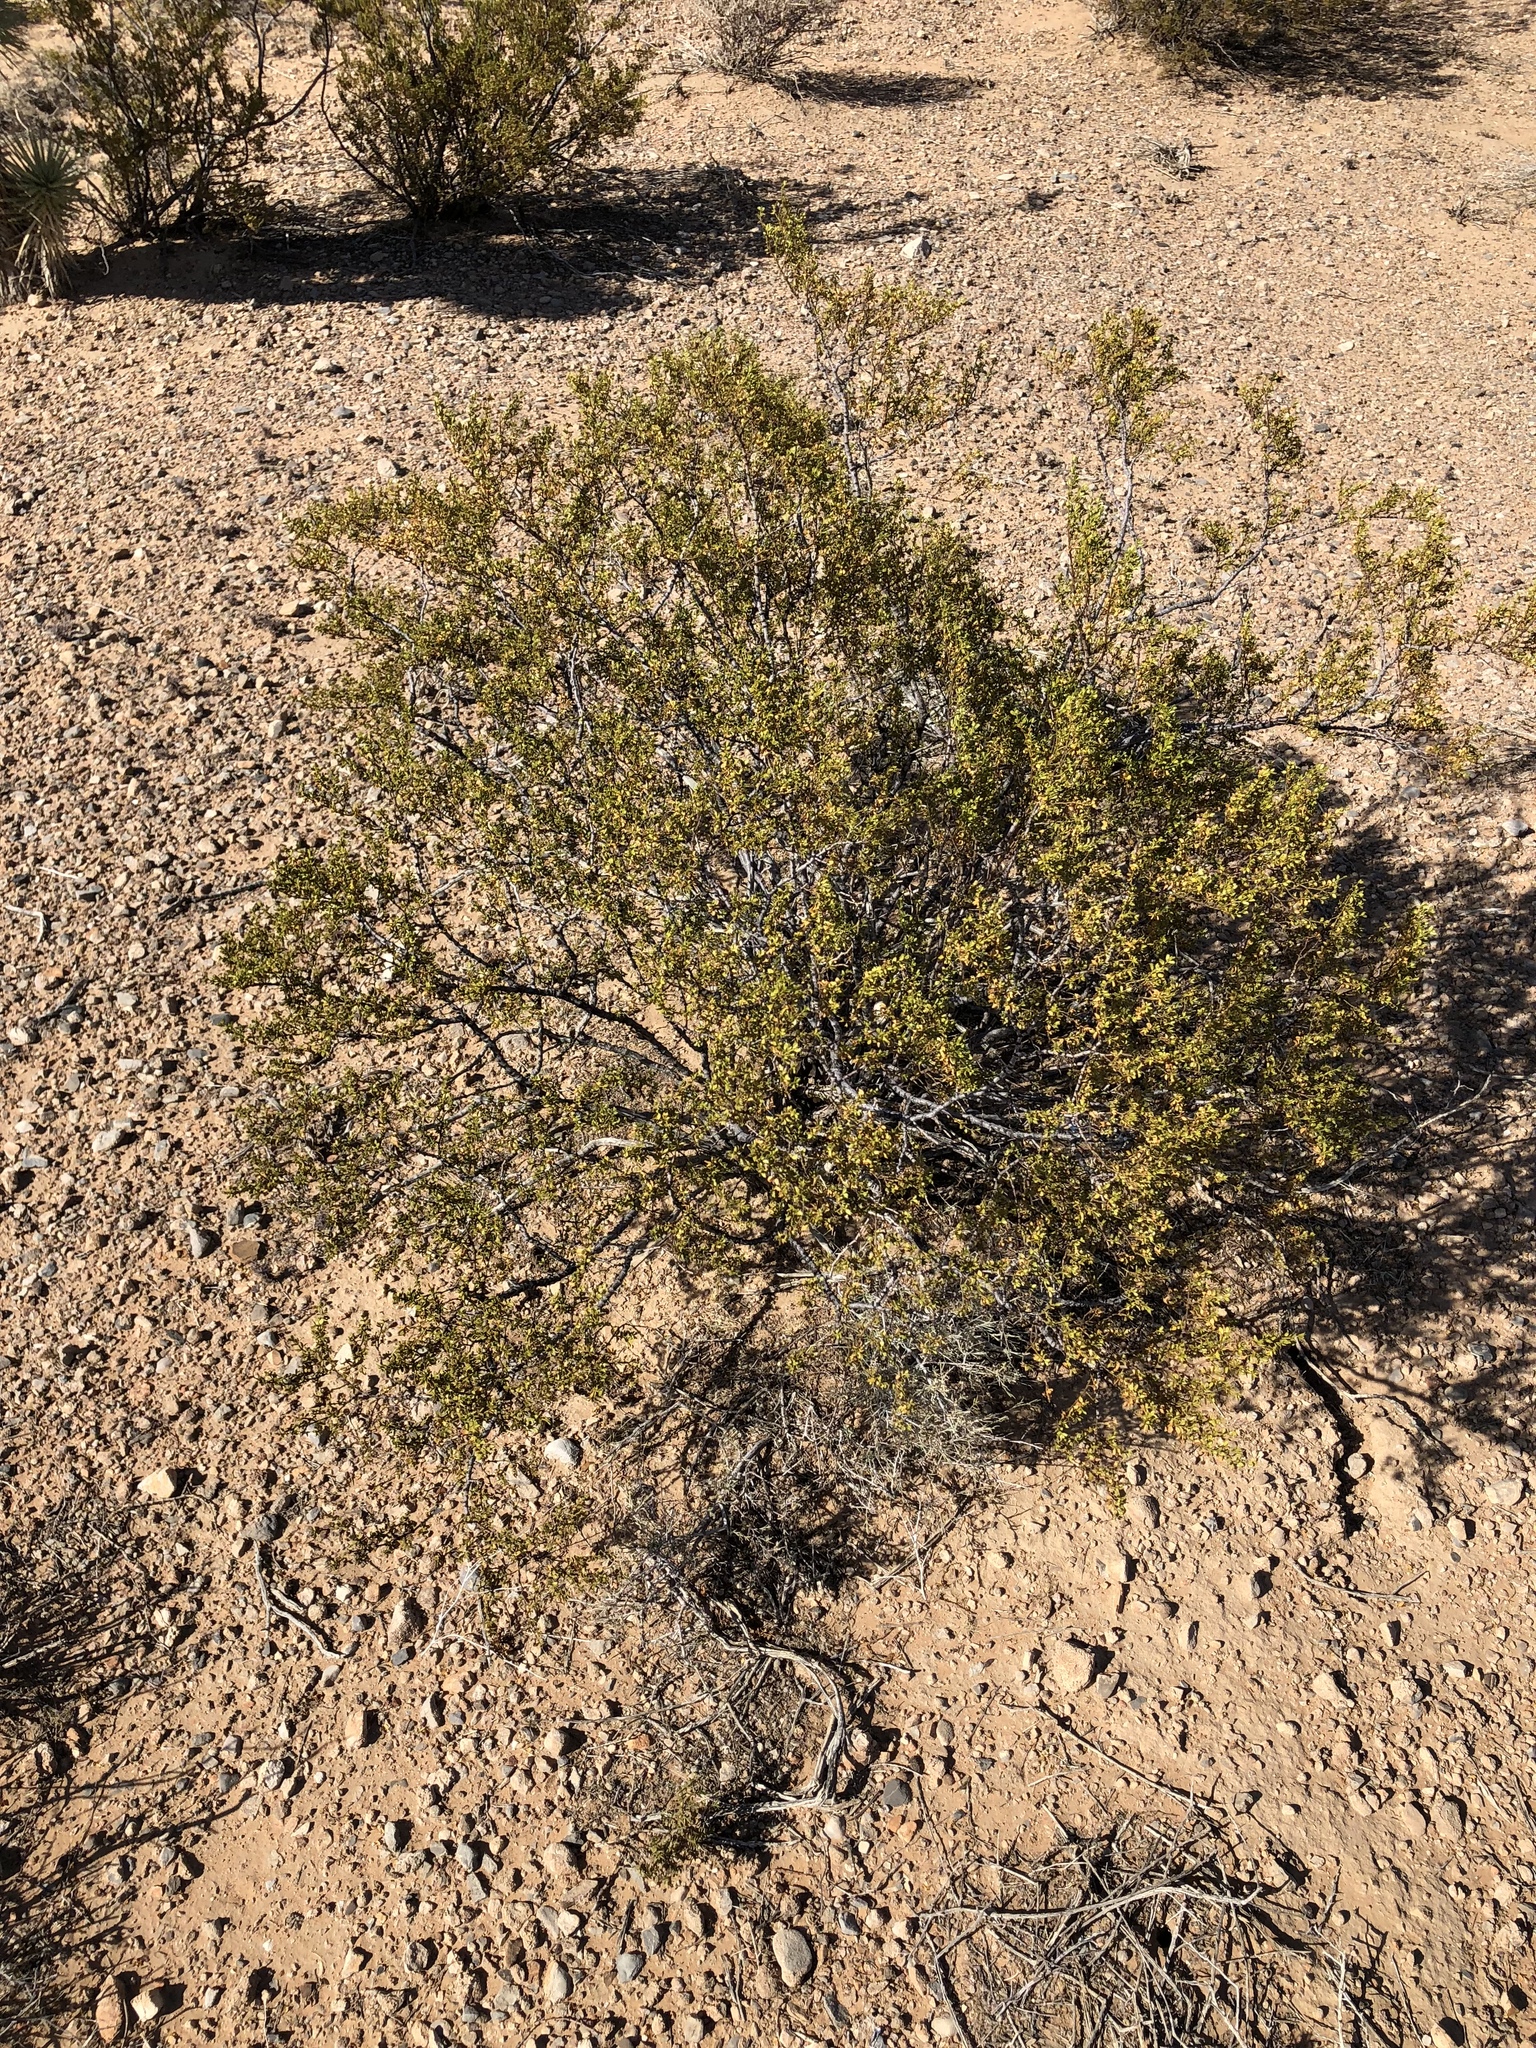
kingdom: Plantae
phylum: Tracheophyta
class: Magnoliopsida
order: Zygophyllales
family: Zygophyllaceae
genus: Larrea
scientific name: Larrea tridentata
